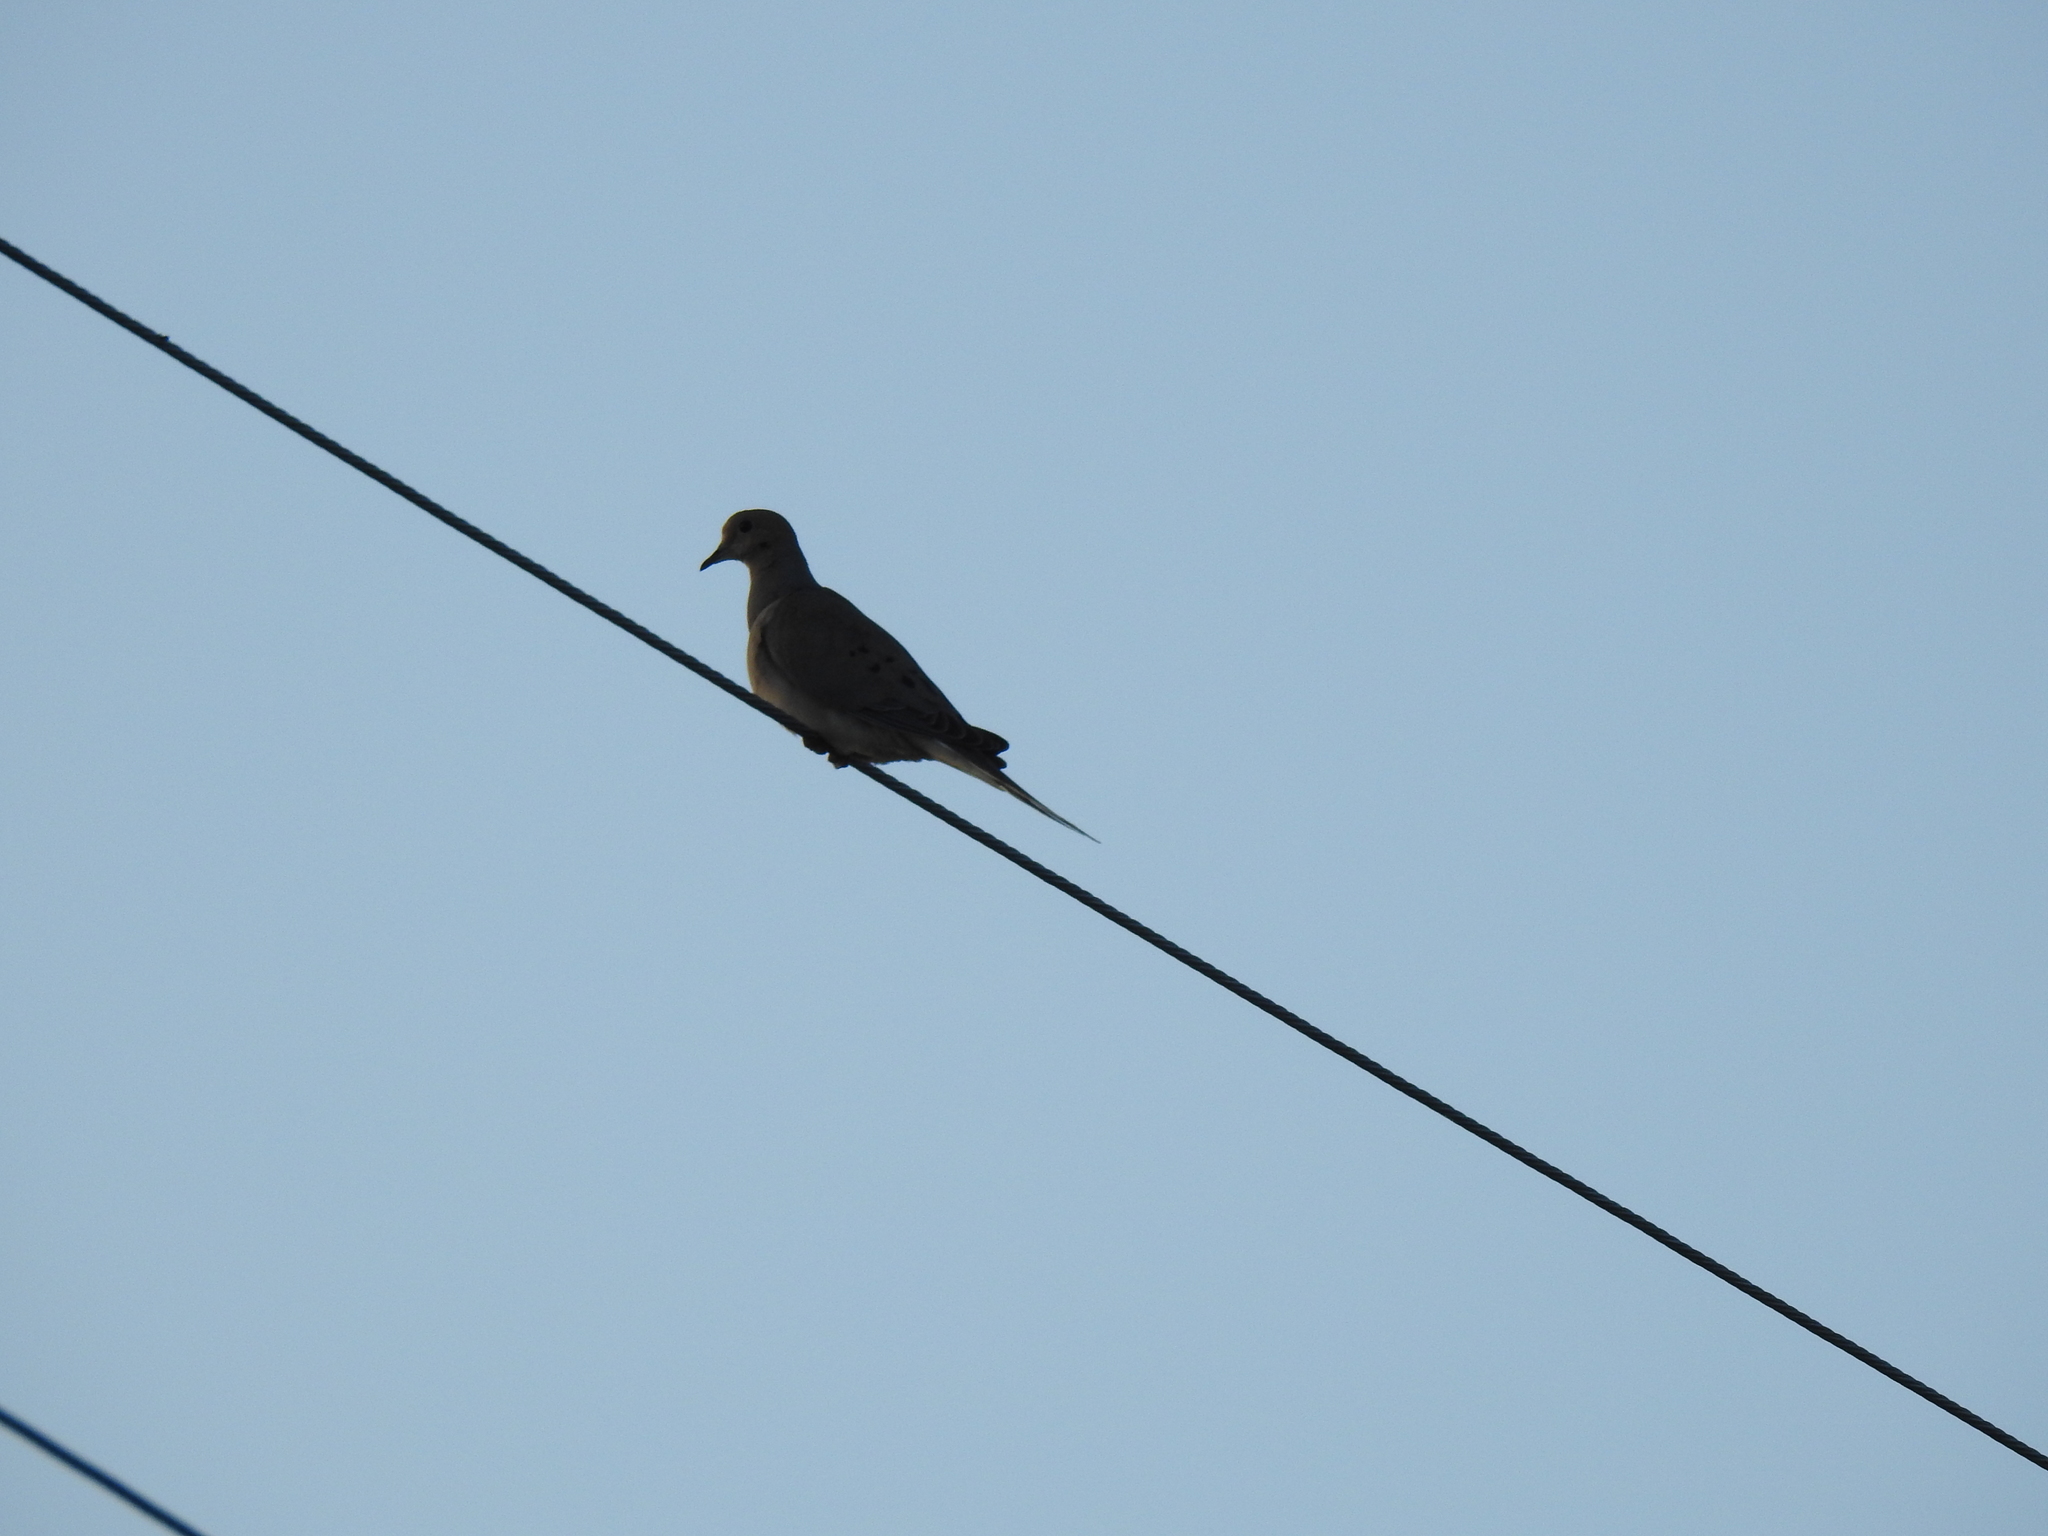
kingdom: Animalia
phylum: Chordata
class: Aves
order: Columbiformes
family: Columbidae
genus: Zenaida
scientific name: Zenaida macroura
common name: Mourning dove
